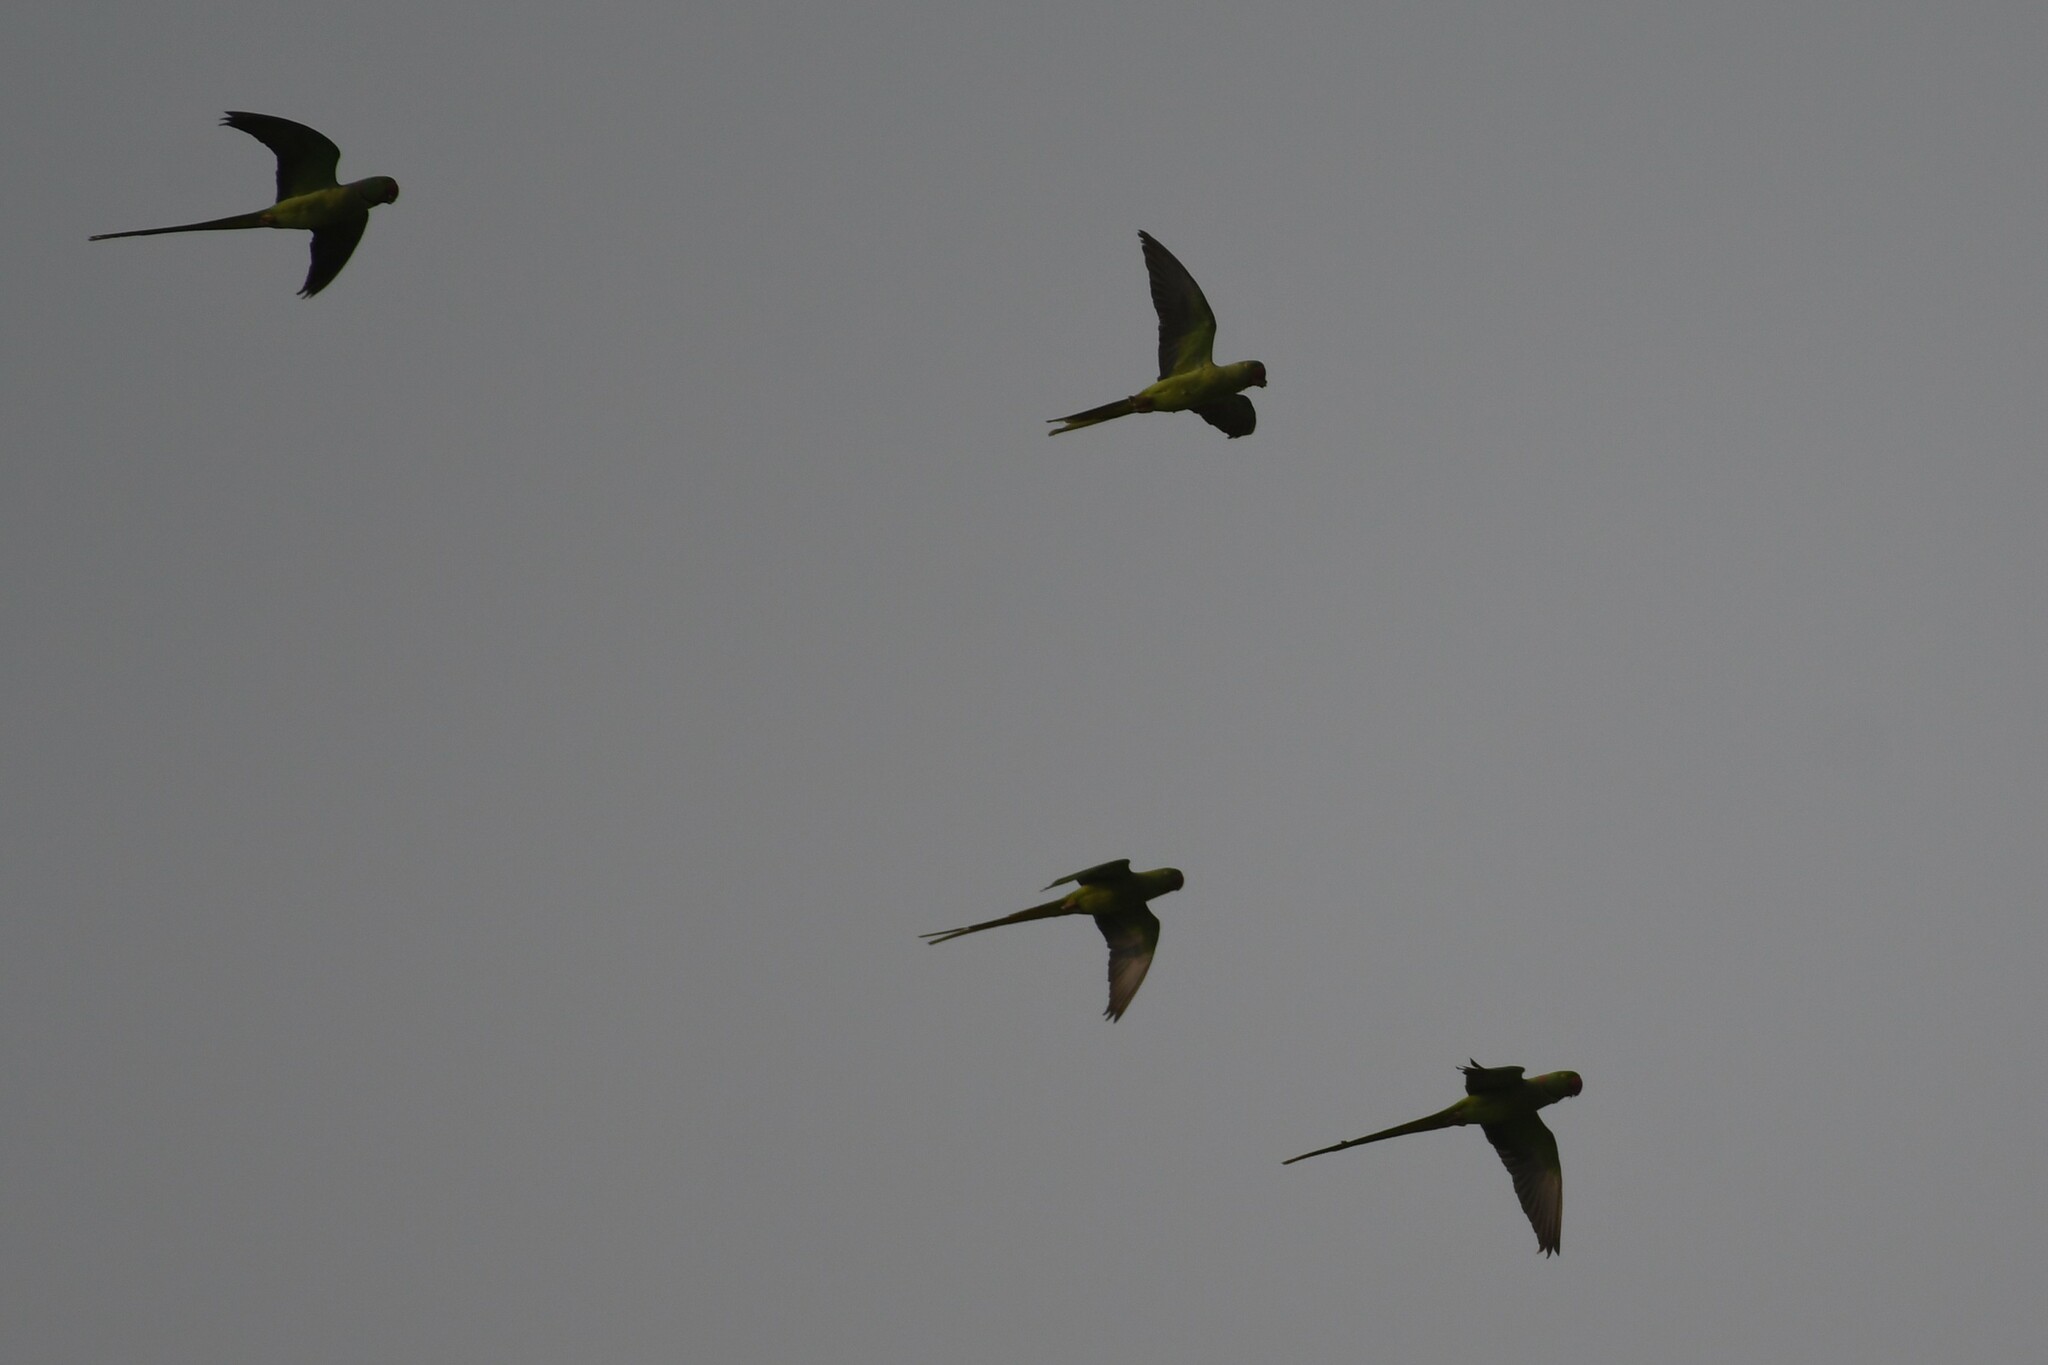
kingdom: Animalia
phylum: Chordata
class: Aves
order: Psittaciformes
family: Psittacidae
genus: Psittacula
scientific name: Psittacula krameri
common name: Rose-ringed parakeet
